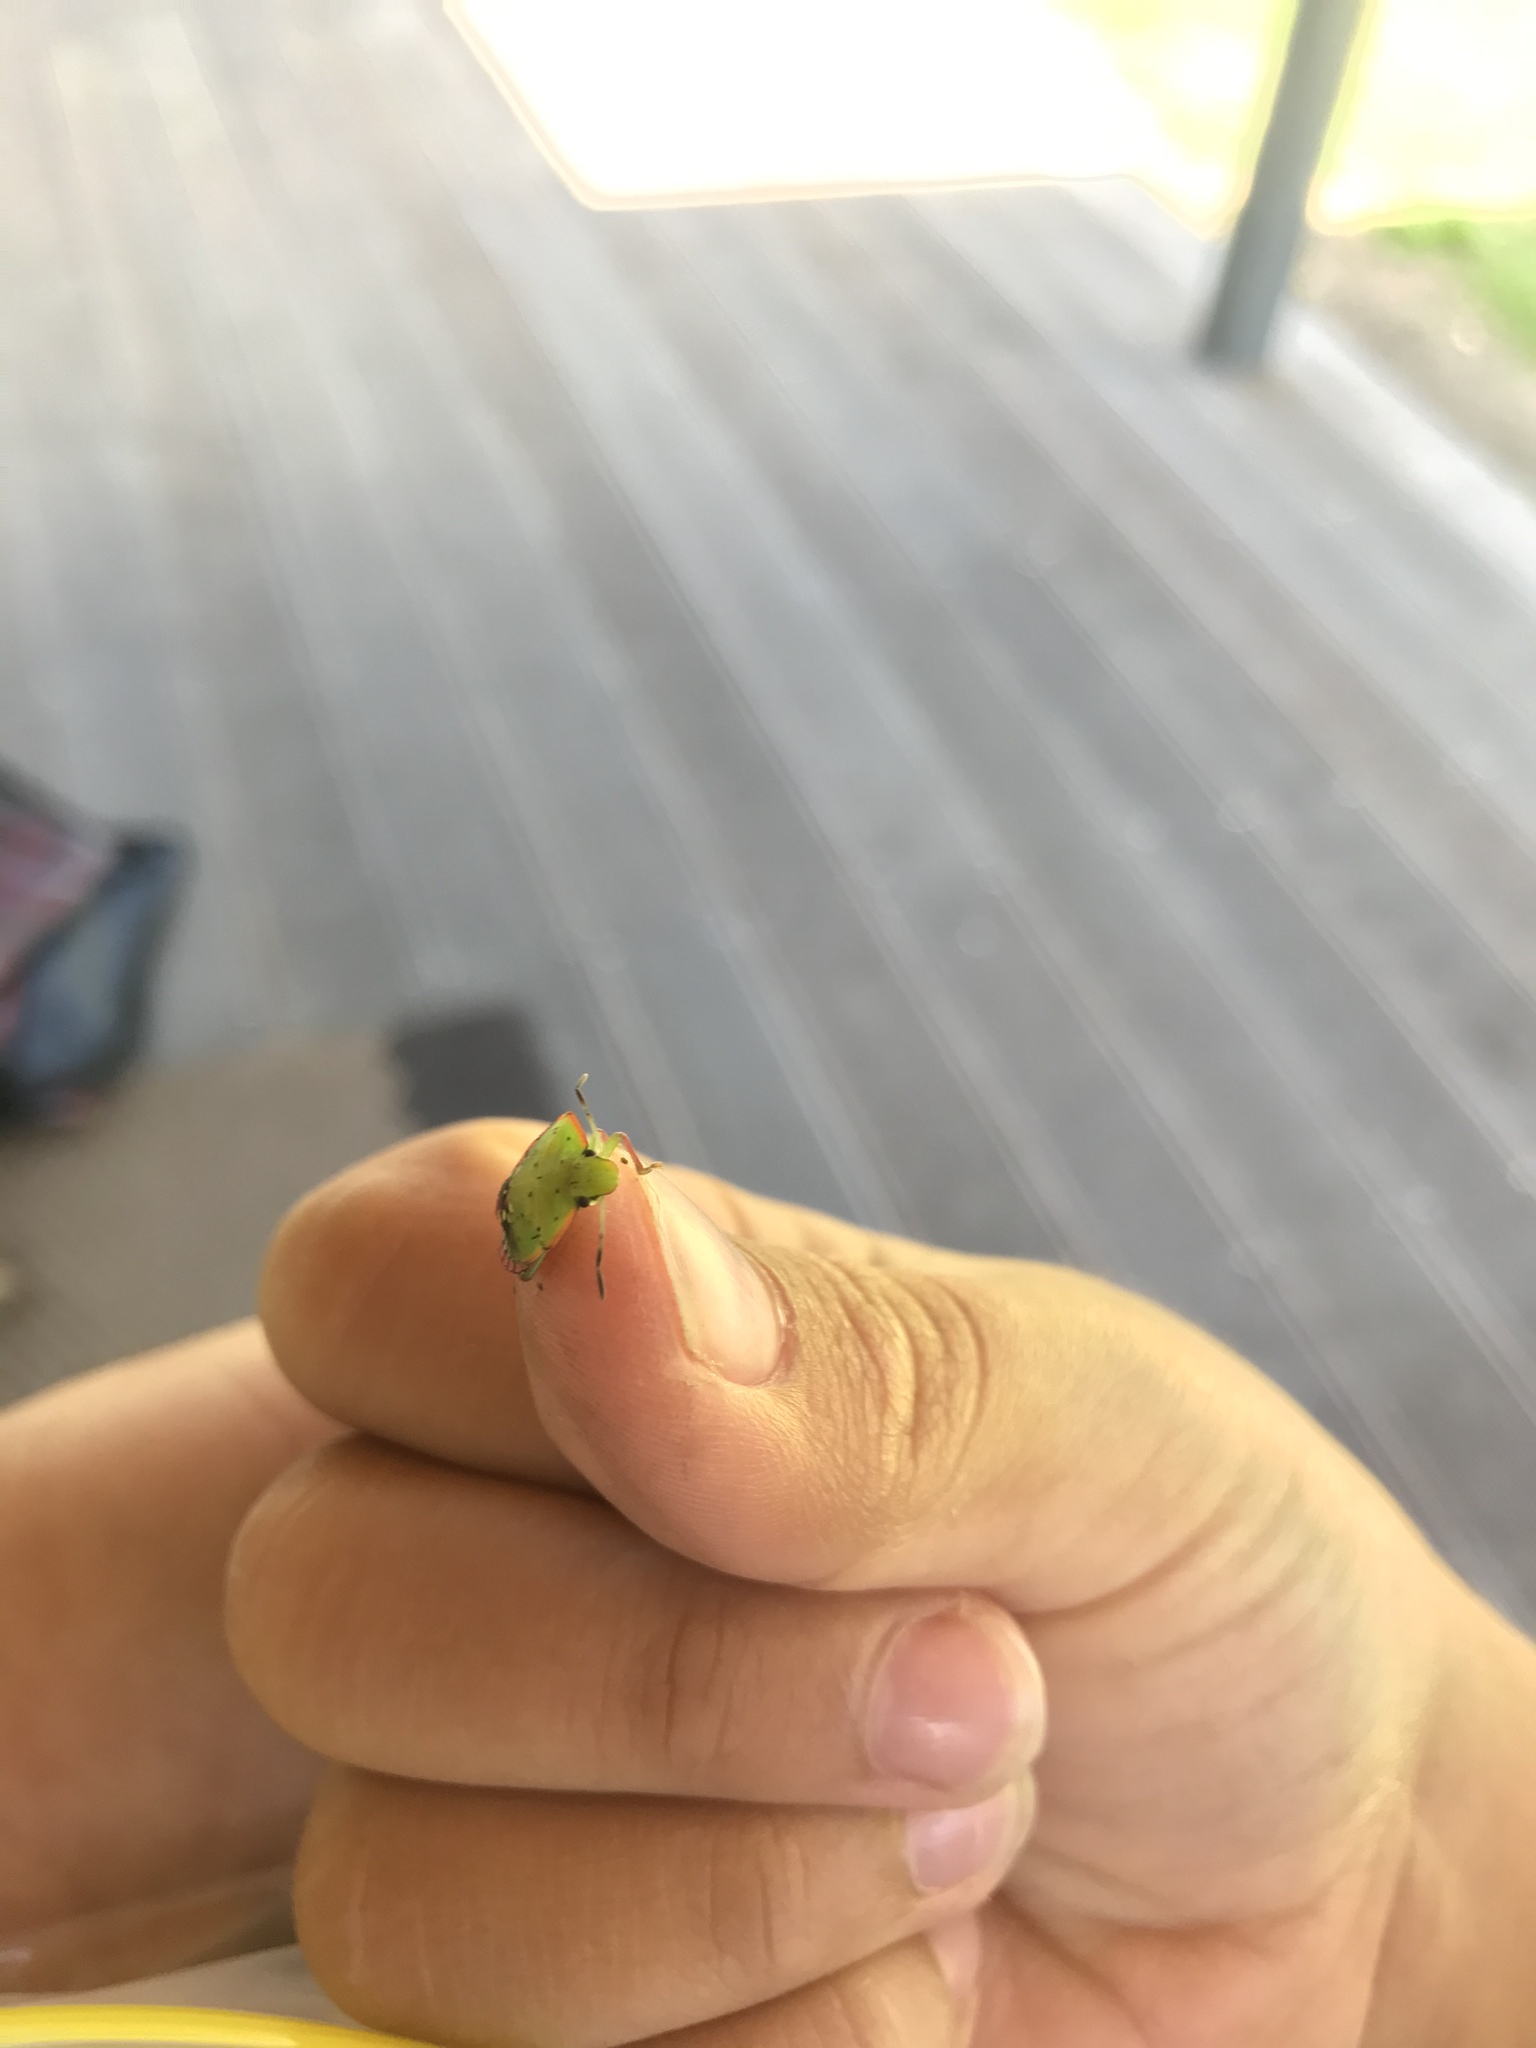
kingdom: Animalia
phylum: Arthropoda
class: Insecta
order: Hemiptera
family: Pentatomidae
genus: Nezara
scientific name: Nezara viridula
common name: Southern green stink bug
